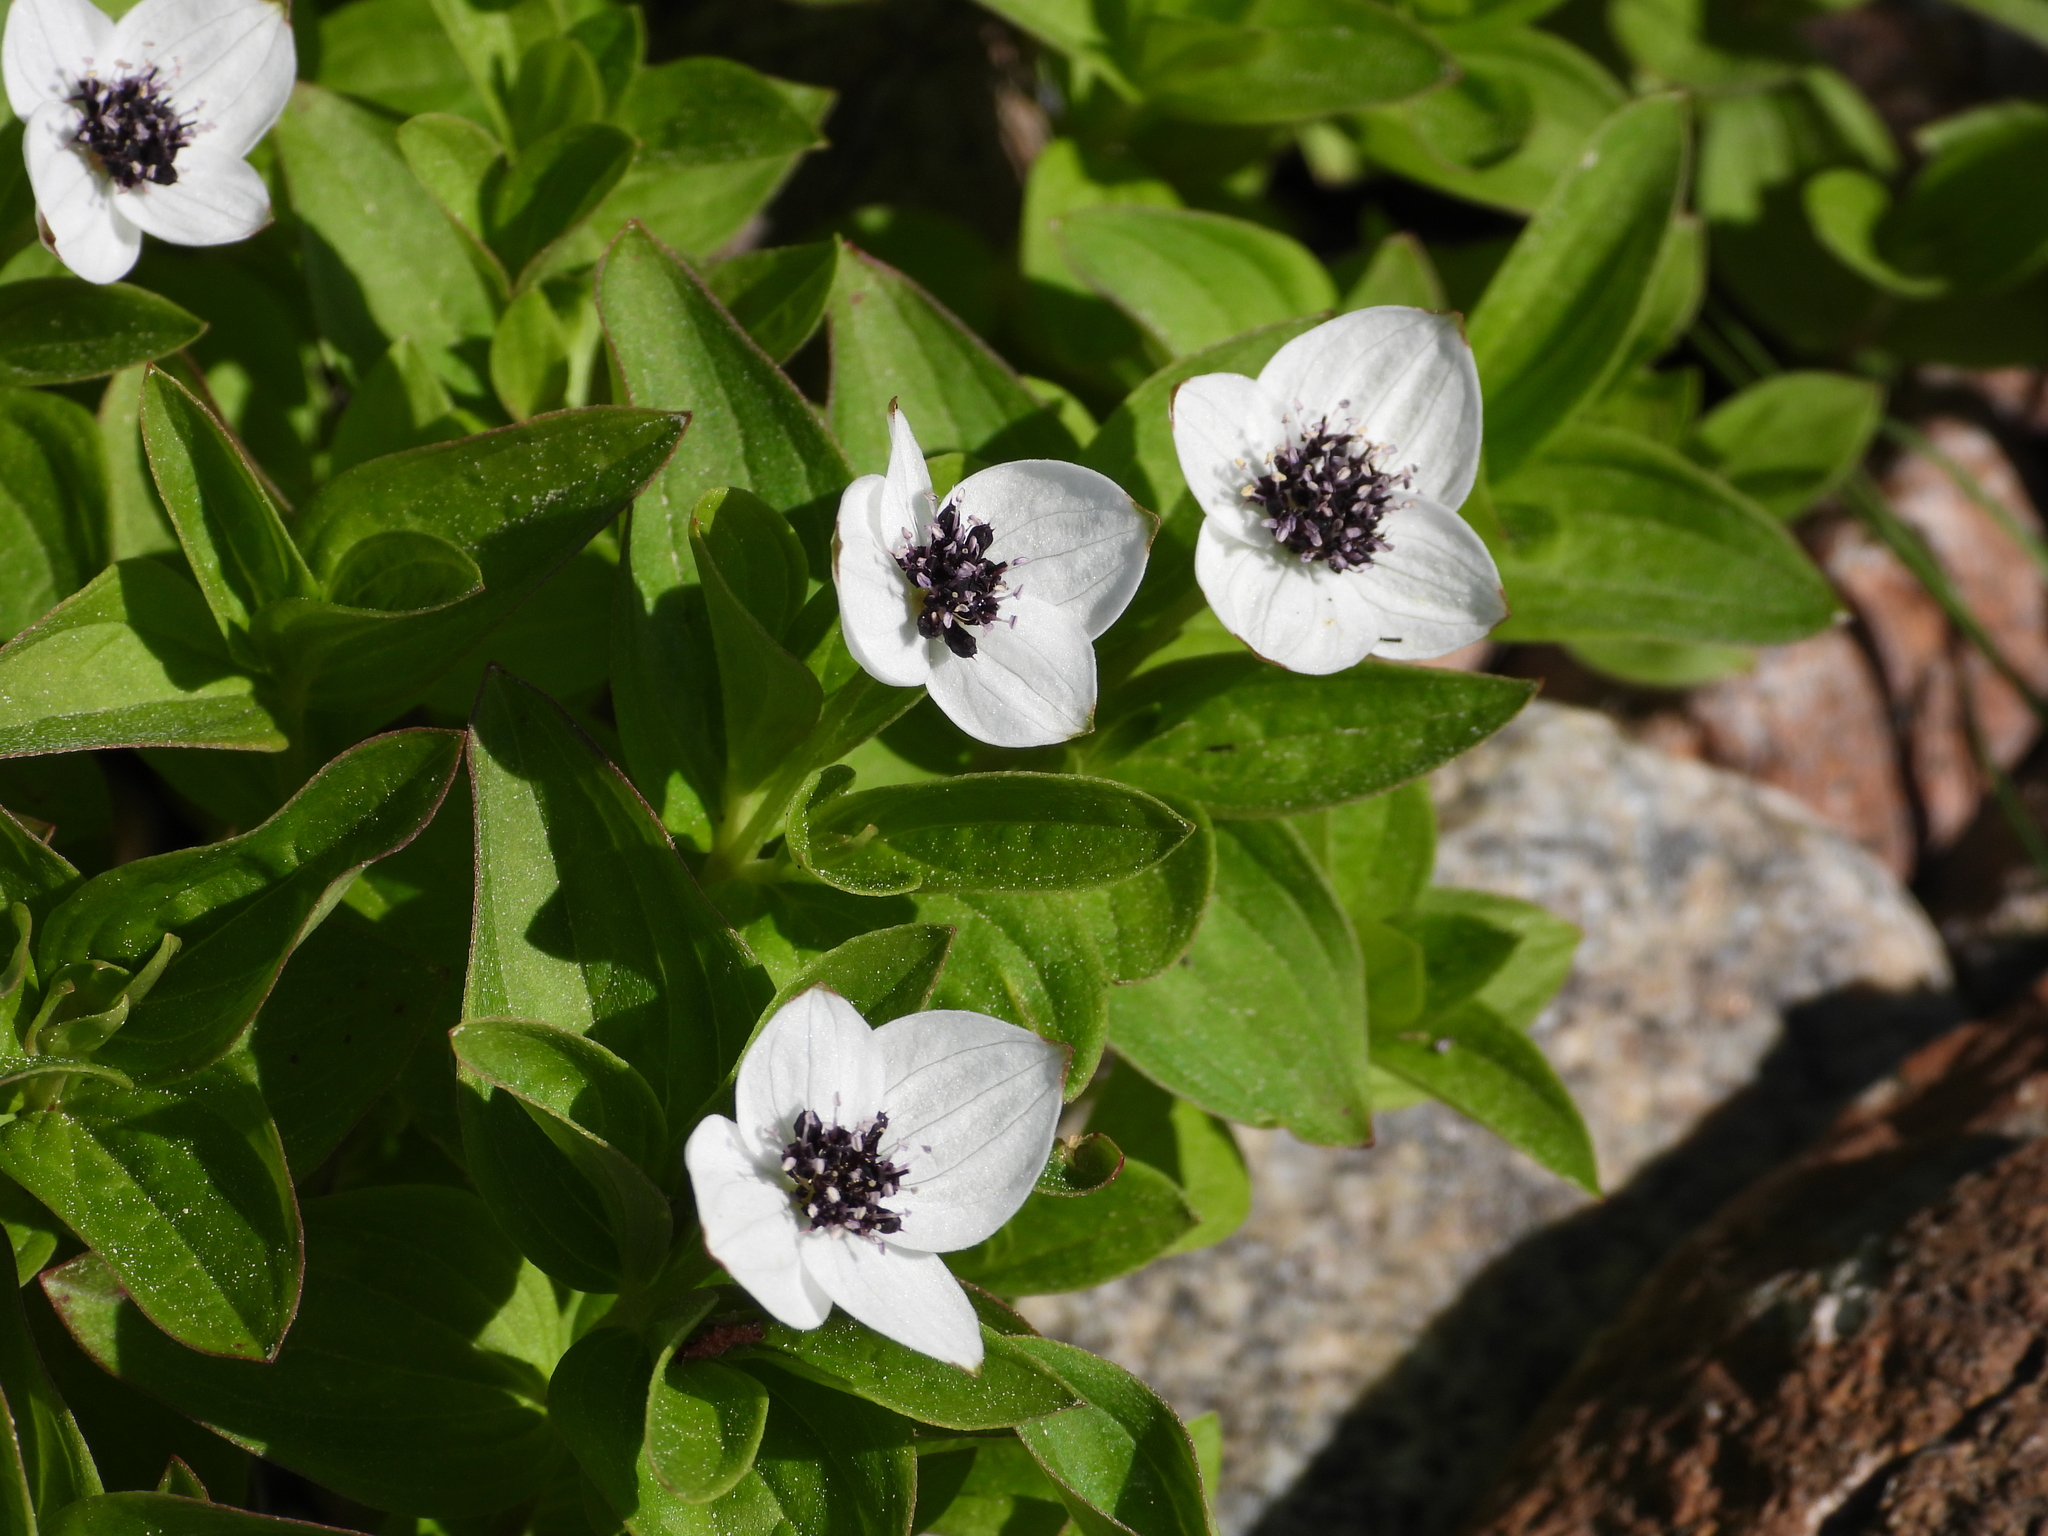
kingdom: Plantae
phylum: Tracheophyta
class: Magnoliopsida
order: Cornales
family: Cornaceae
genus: Cornus
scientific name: Cornus suecica
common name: Dwarf cornel
